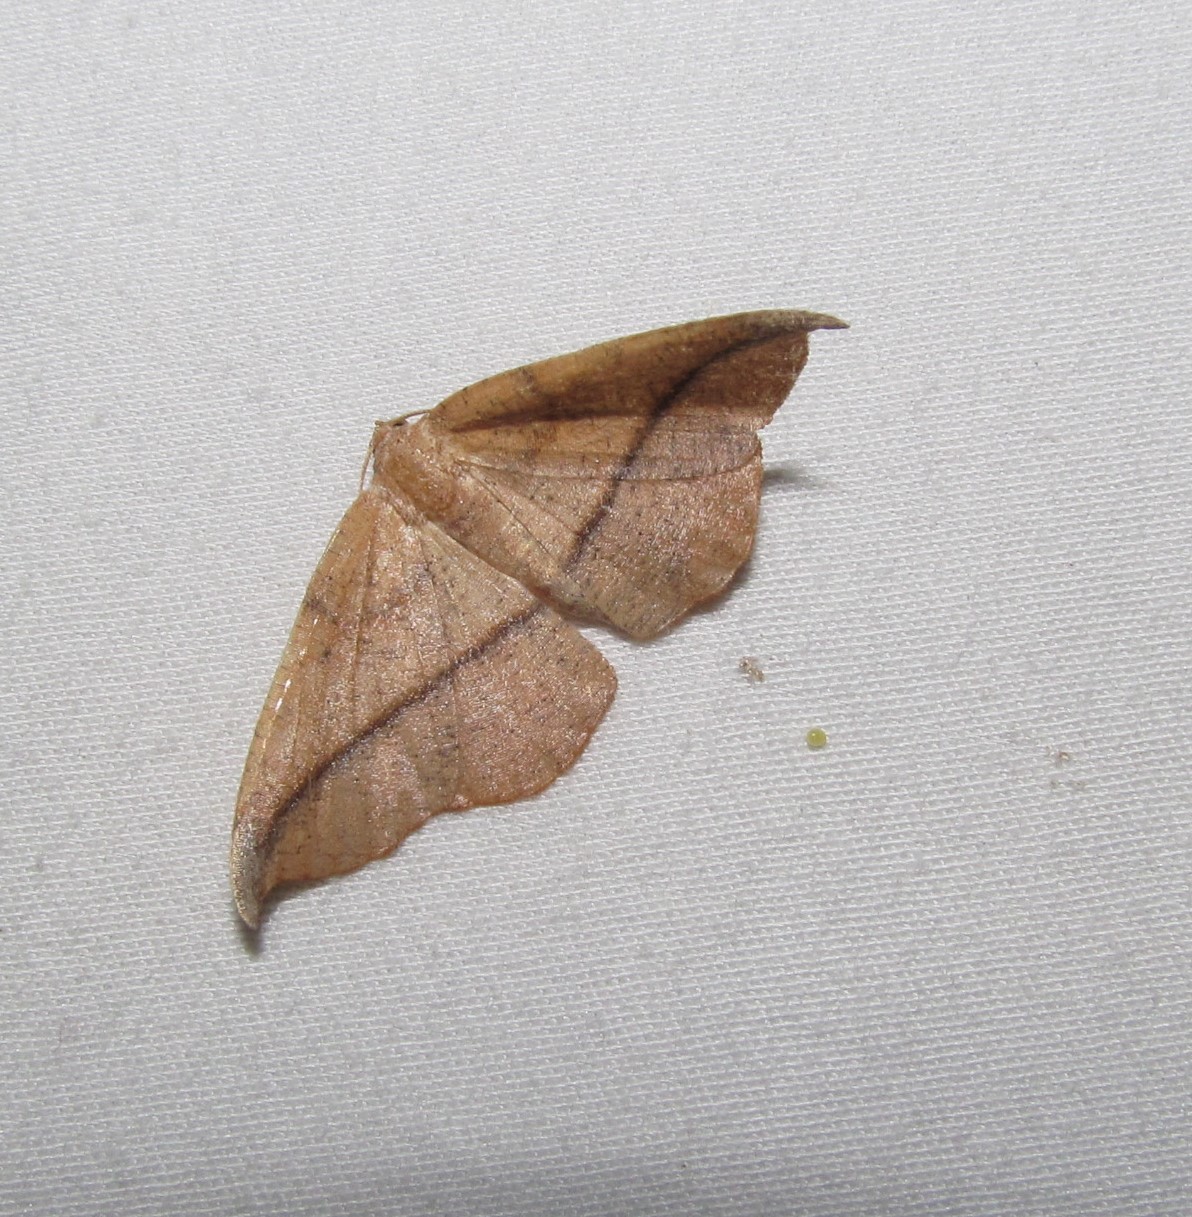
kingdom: Animalia
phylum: Arthropoda
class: Insecta
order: Lepidoptera
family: Geometridae
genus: Patalene
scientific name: Patalene olyzonaria
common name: Juniper geometer moth
